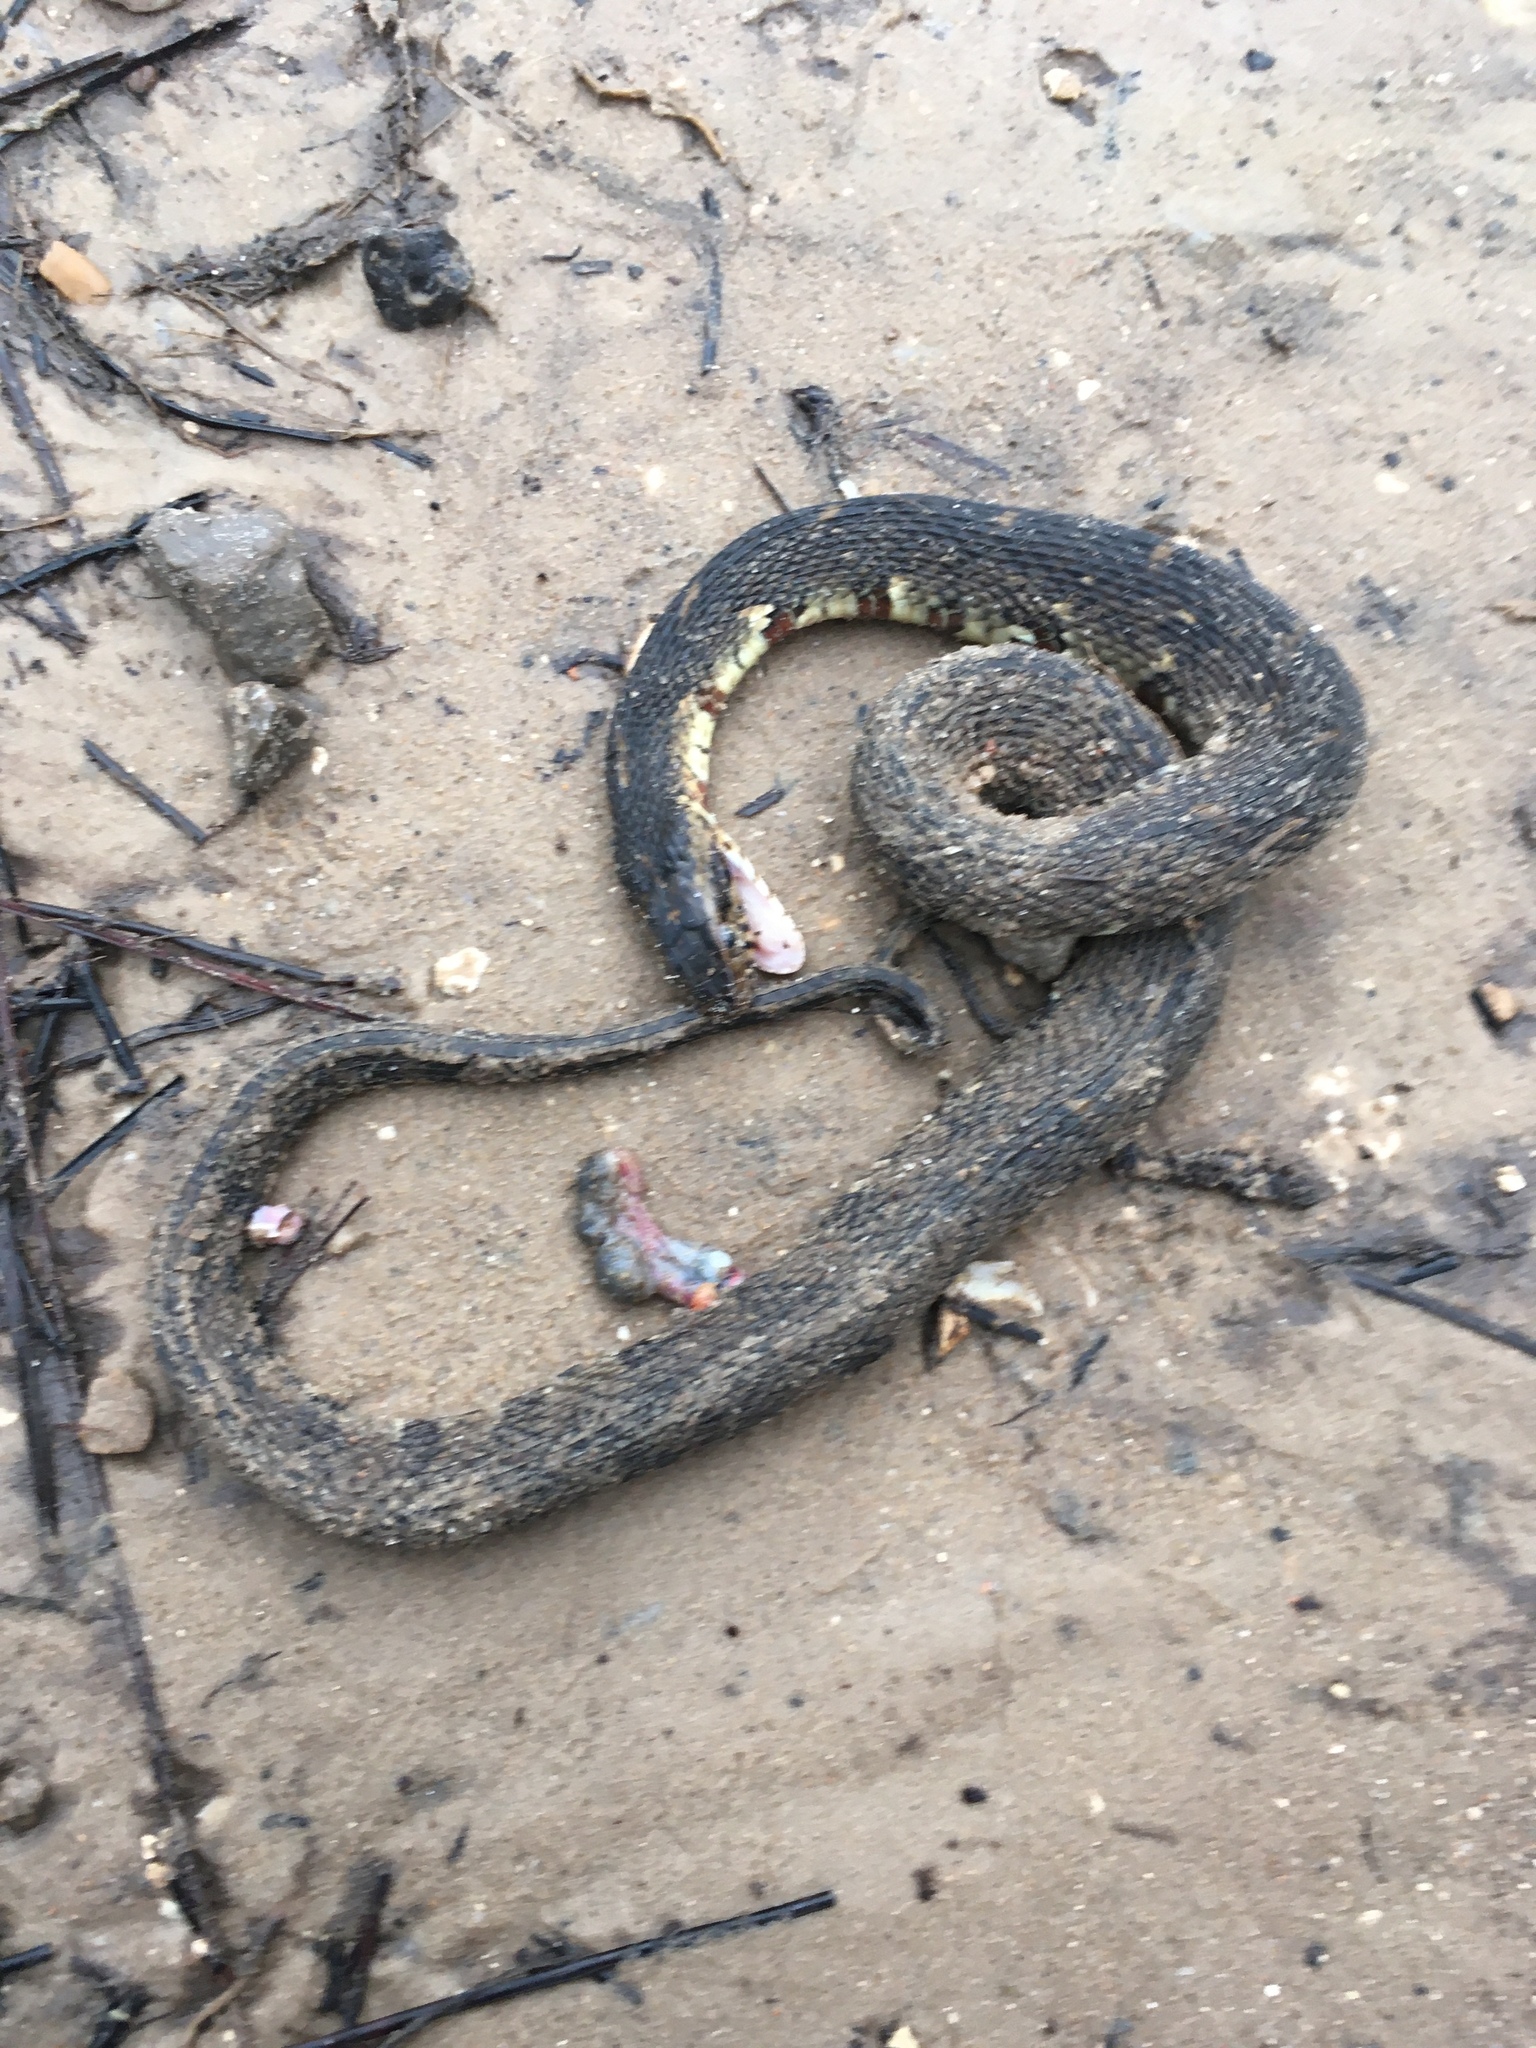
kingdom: Animalia
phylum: Chordata
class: Squamata
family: Colubridae
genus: Nerodia
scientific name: Nerodia fasciata
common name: Southern water snake
